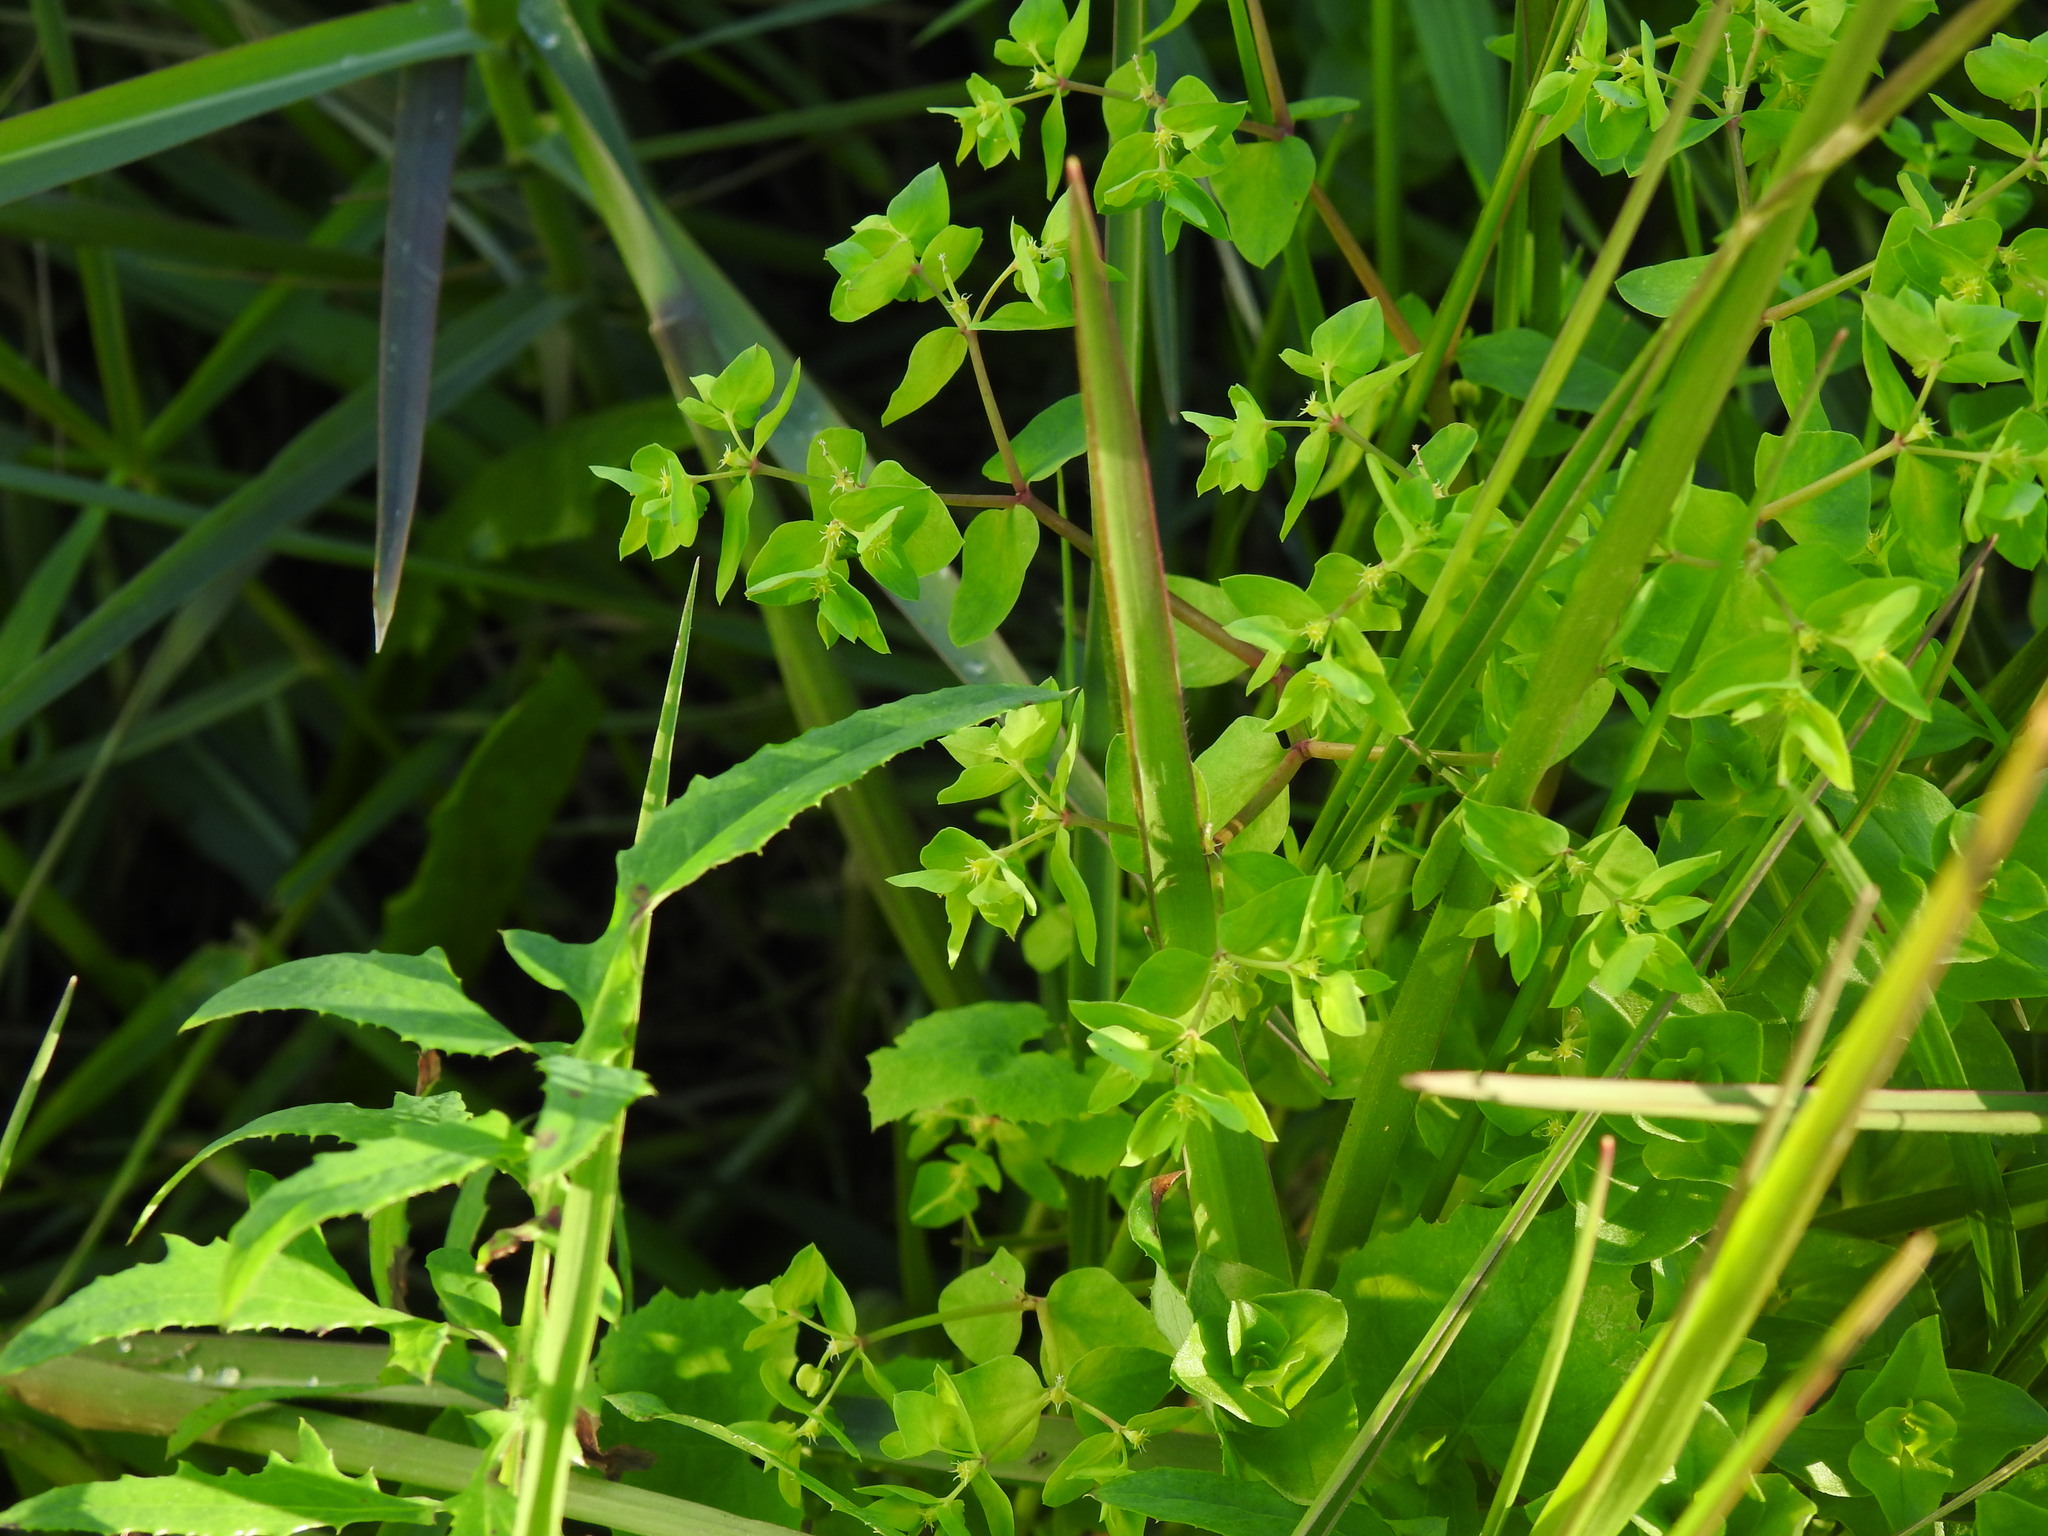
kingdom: Plantae
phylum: Tracheophyta
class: Magnoliopsida
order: Malpighiales
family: Euphorbiaceae
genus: Euphorbia
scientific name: Euphorbia peplus
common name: Petty spurge
